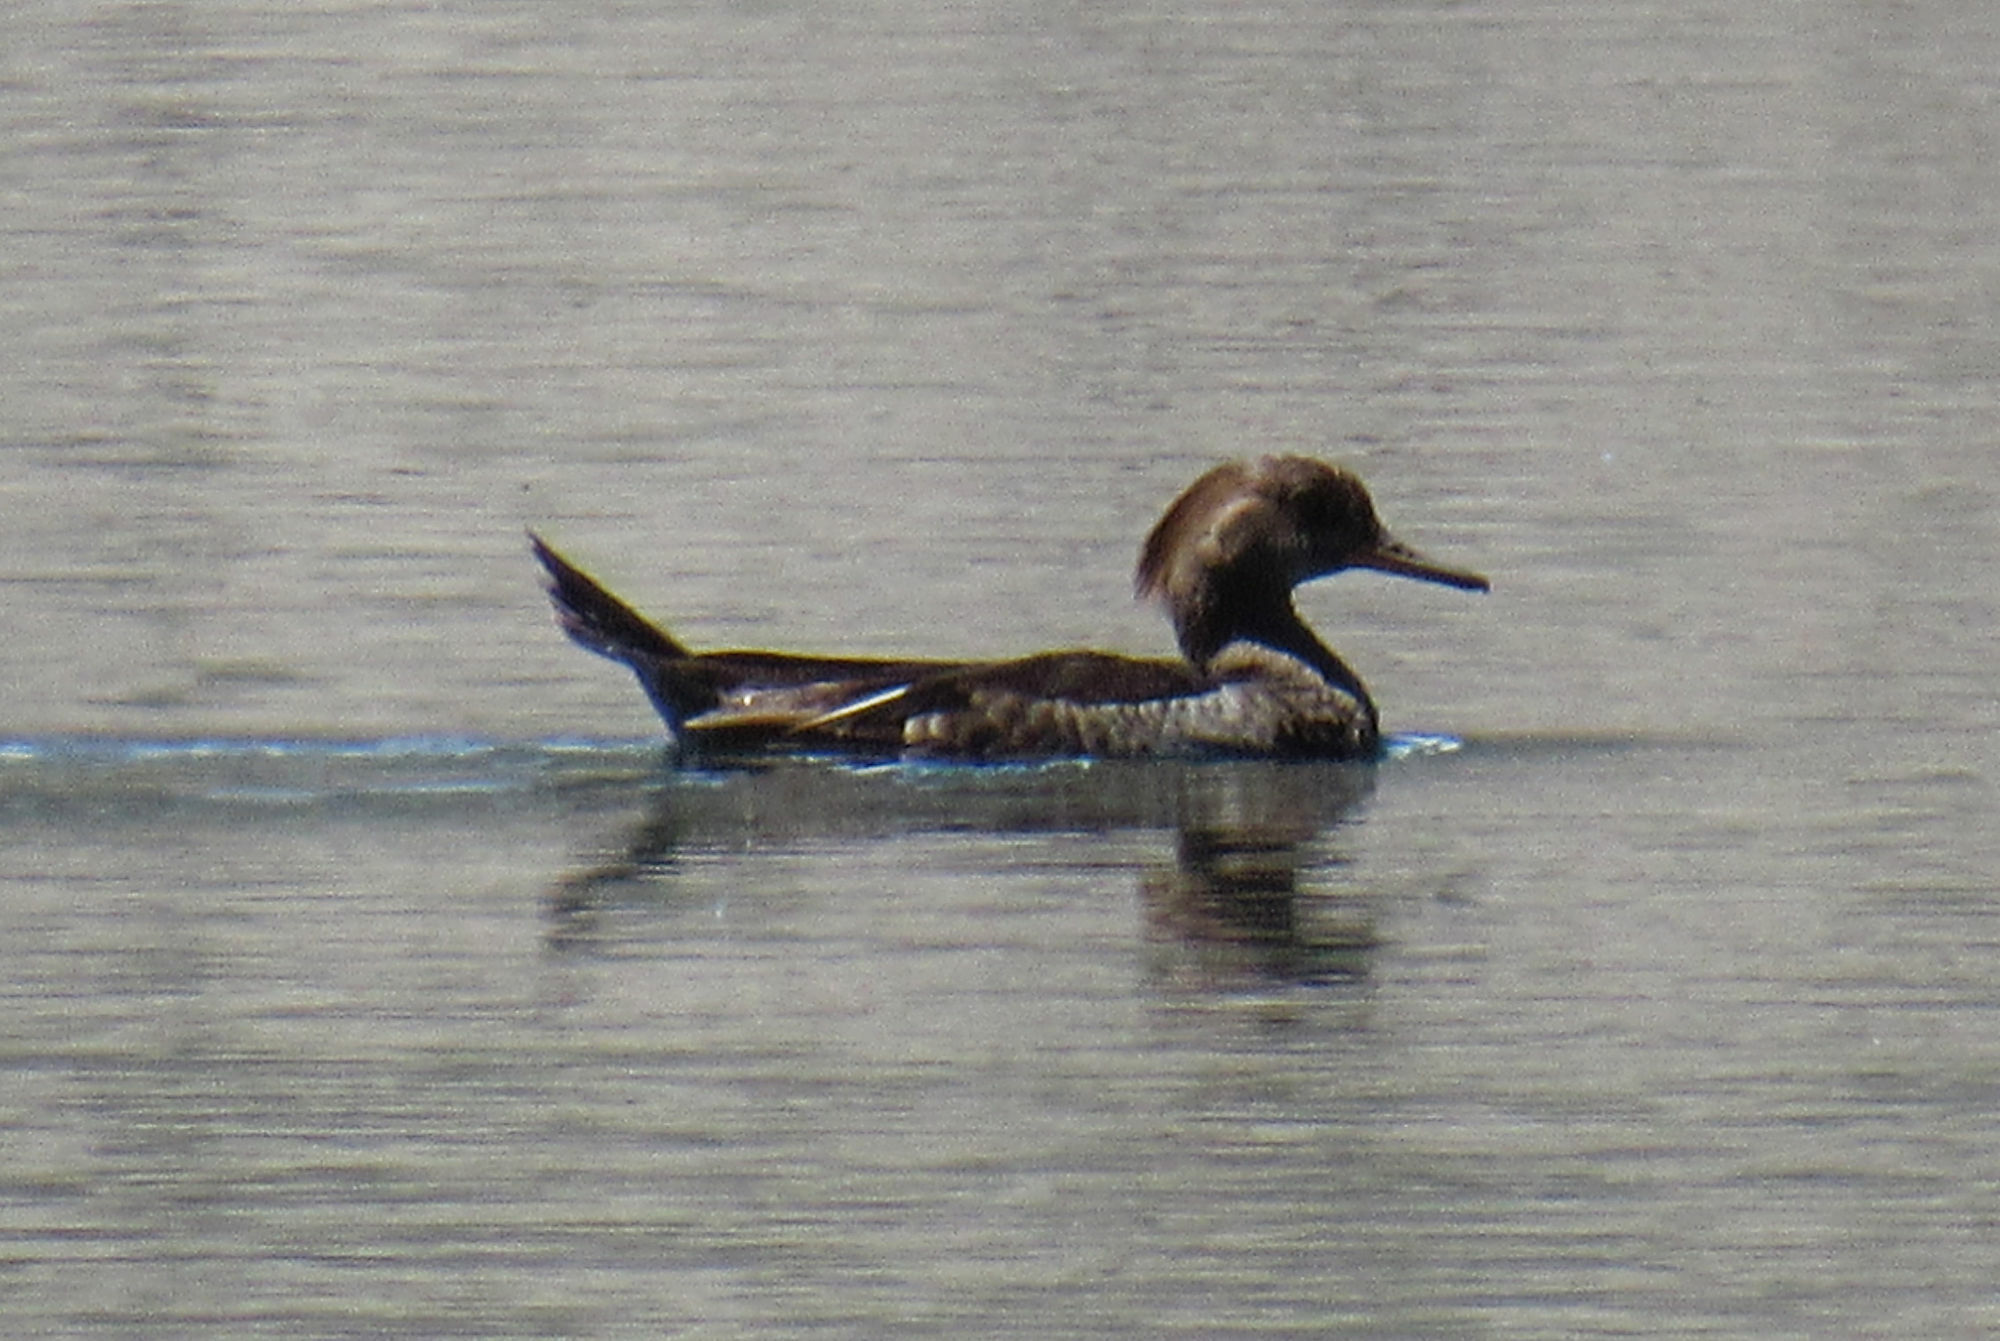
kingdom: Animalia
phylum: Chordata
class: Aves
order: Anseriformes
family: Anatidae
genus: Lophodytes
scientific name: Lophodytes cucullatus
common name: Hooded merganser
